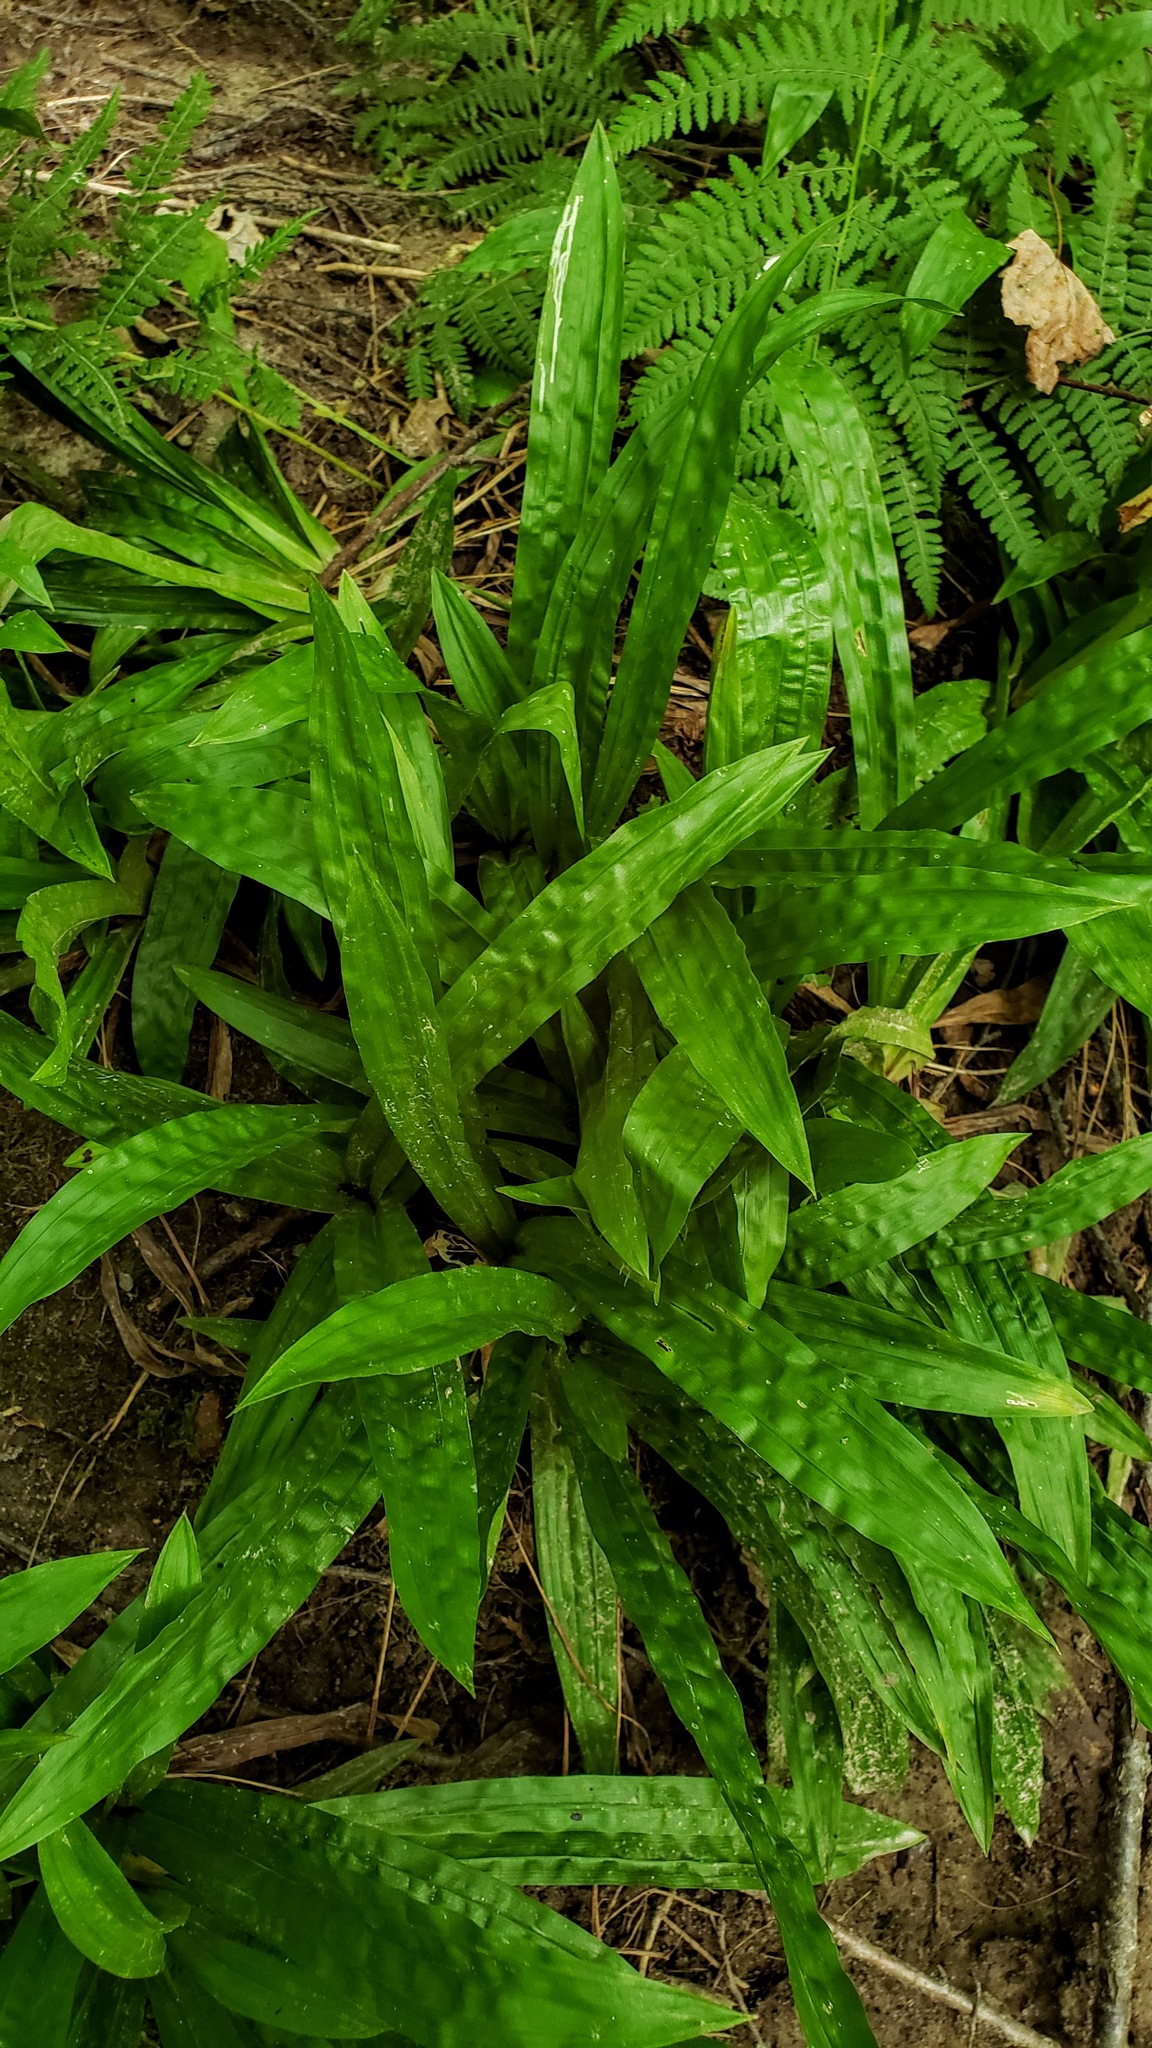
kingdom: Plantae
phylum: Tracheophyta
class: Liliopsida
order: Poales
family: Cyperaceae
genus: Carex
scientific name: Carex plantaginea
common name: Plantain-leaved sedge
